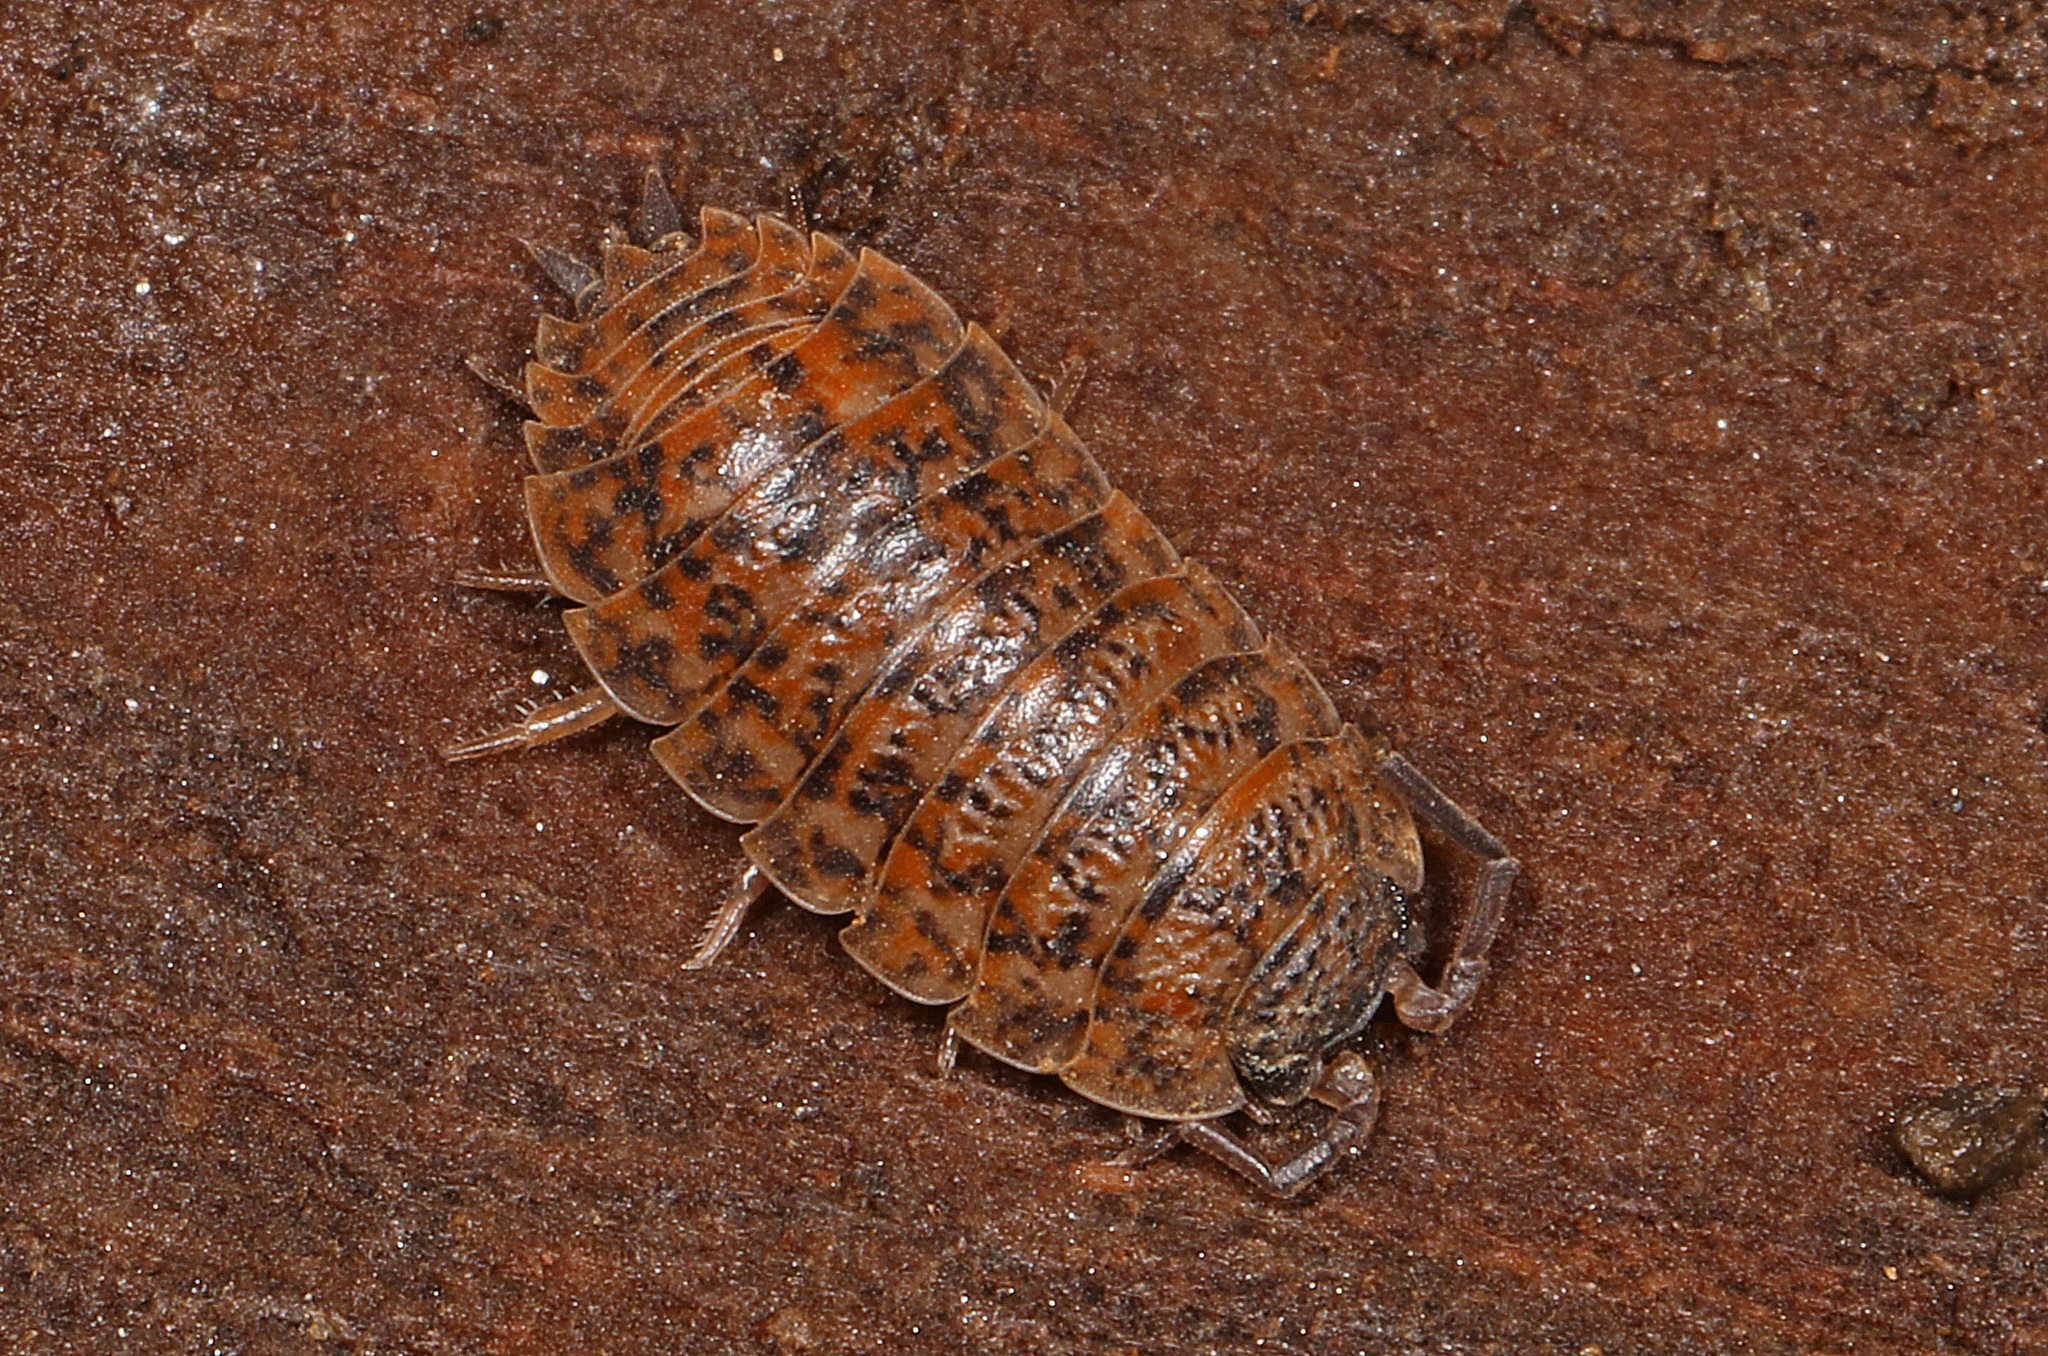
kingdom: Animalia
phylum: Arthropoda
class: Malacostraca
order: Isopoda
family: Trachelipodidae
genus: Trachelipus
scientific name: Trachelipus rathkii
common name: Isopod
